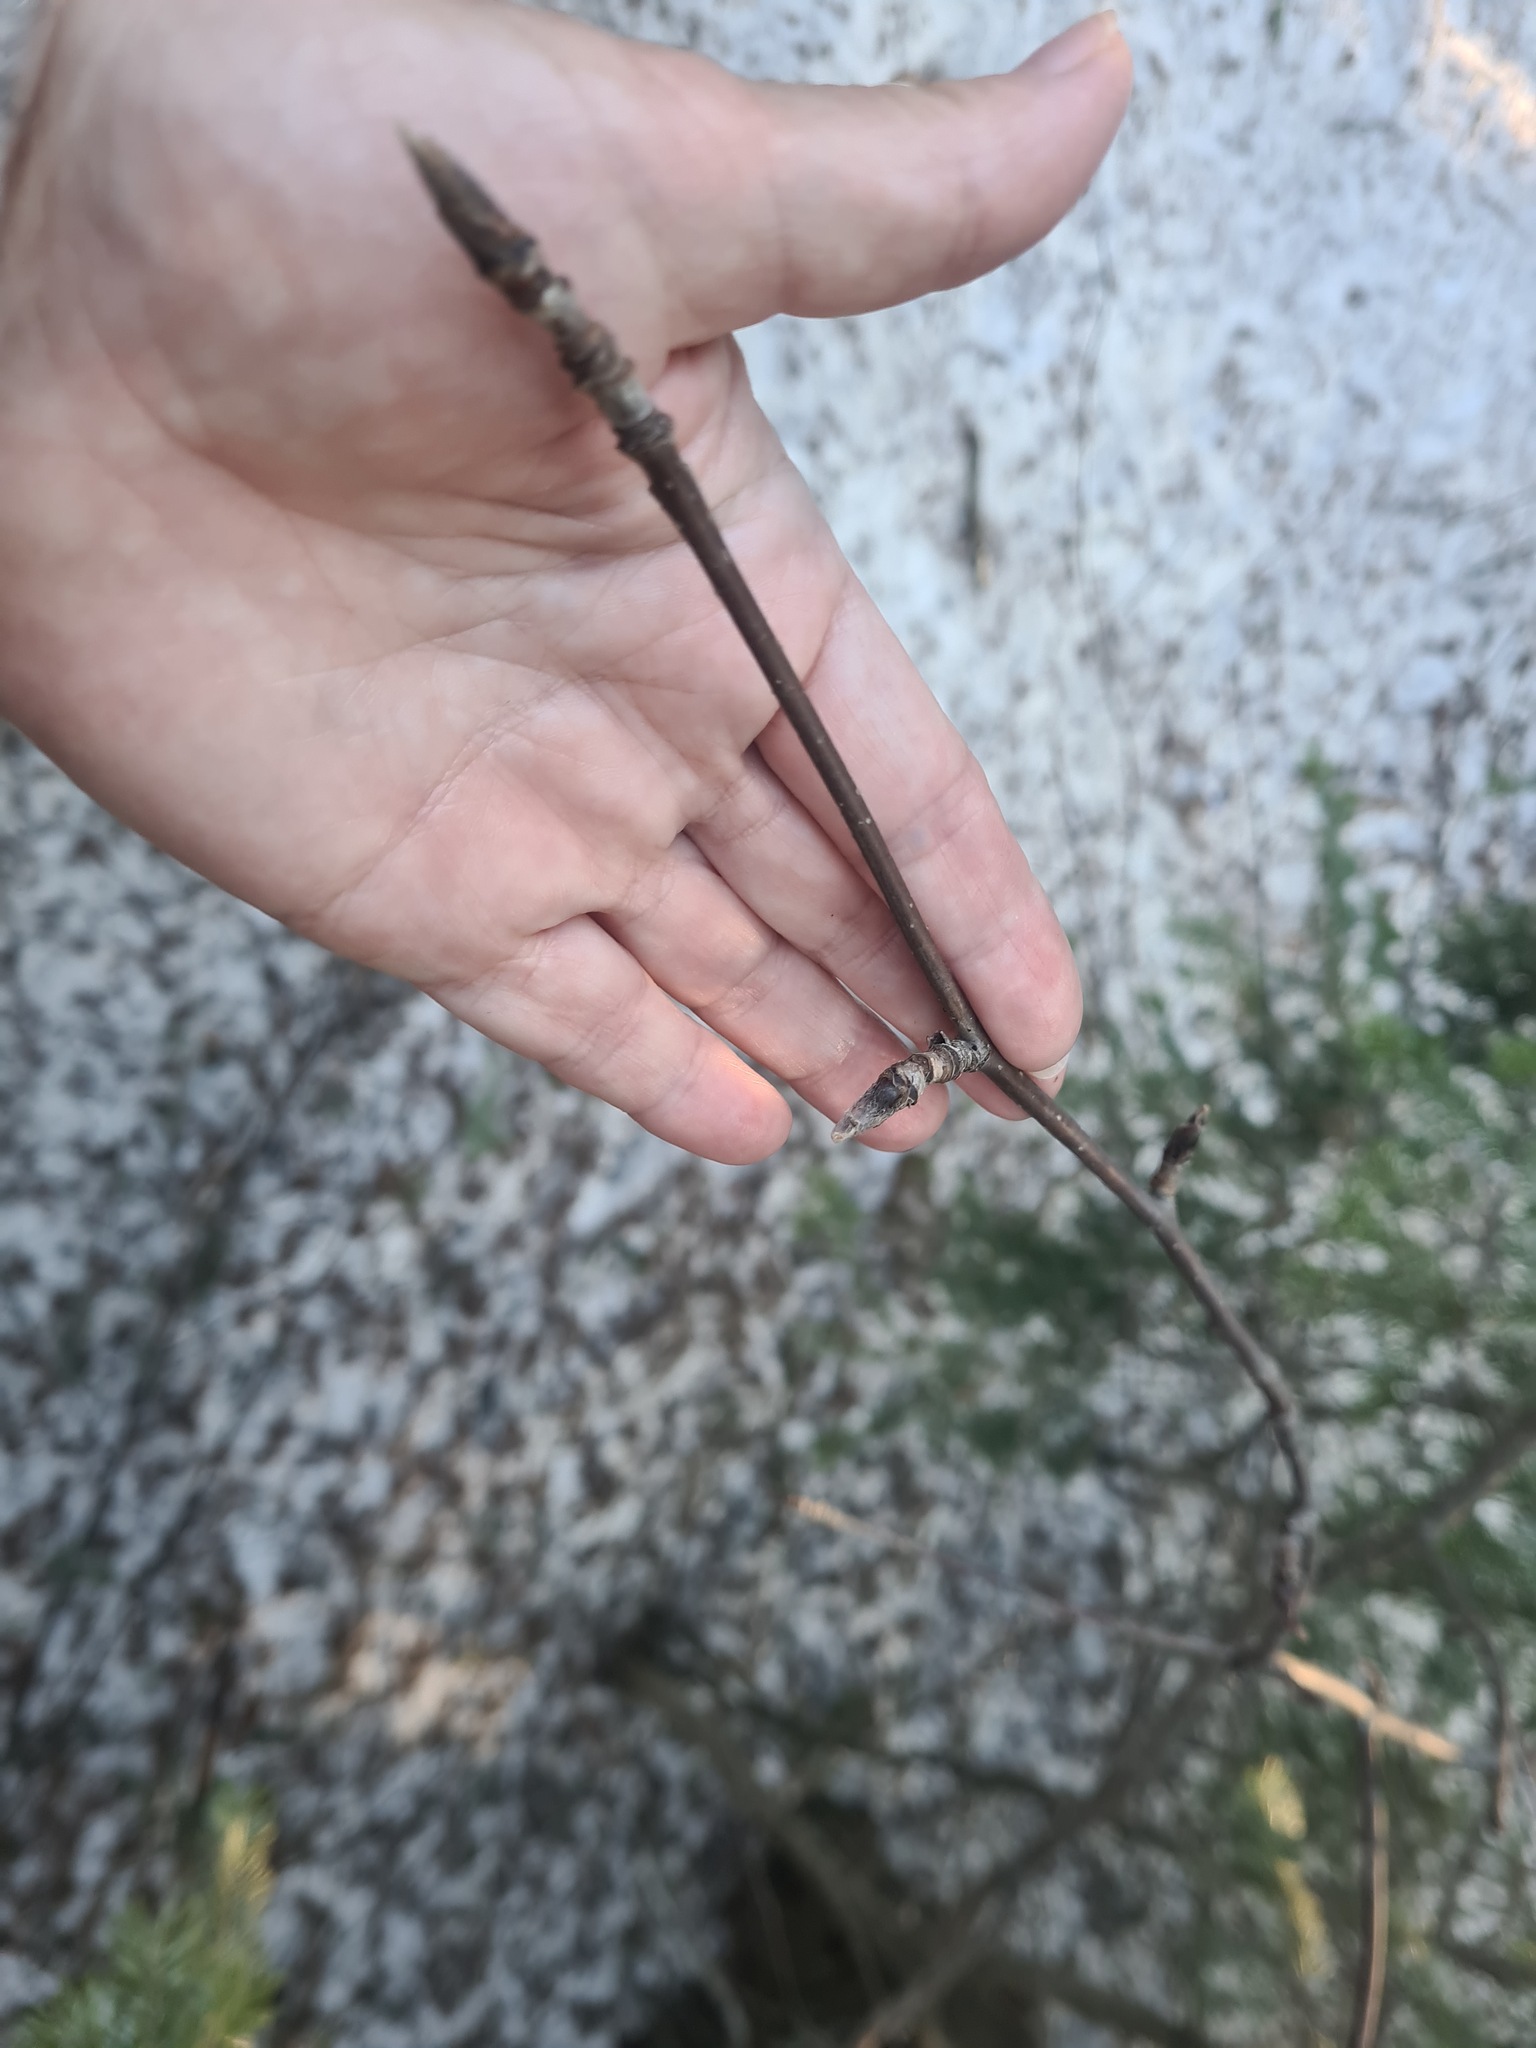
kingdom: Plantae
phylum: Tracheophyta
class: Magnoliopsida
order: Rosales
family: Rosaceae
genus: Sorbus
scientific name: Sorbus aucuparia
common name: Rowan
